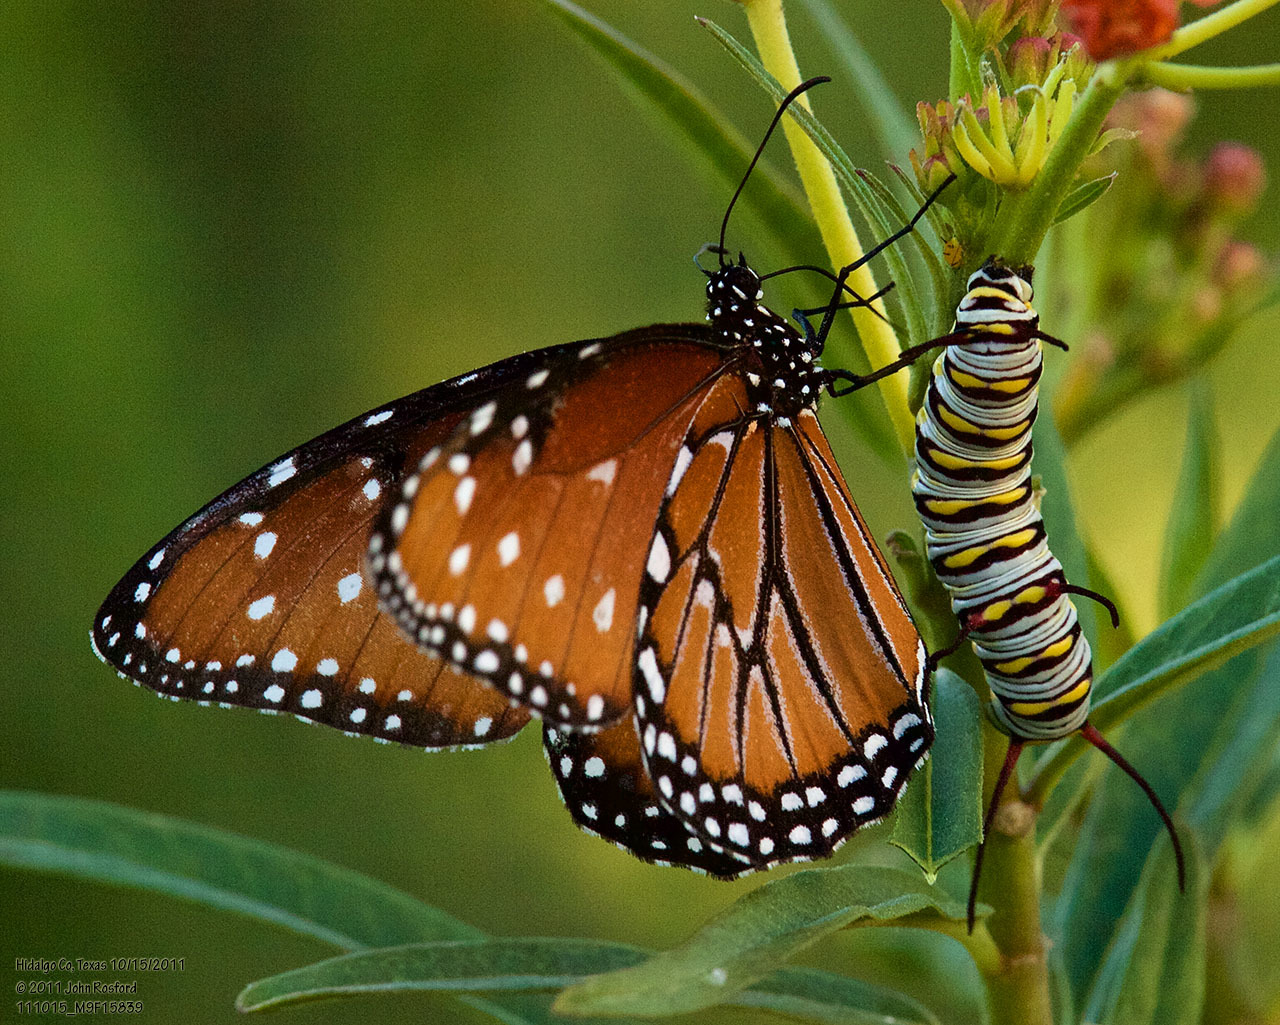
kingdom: Animalia
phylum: Arthropoda
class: Insecta
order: Lepidoptera
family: Nymphalidae
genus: Danaus
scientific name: Danaus gilippus
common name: Queen
